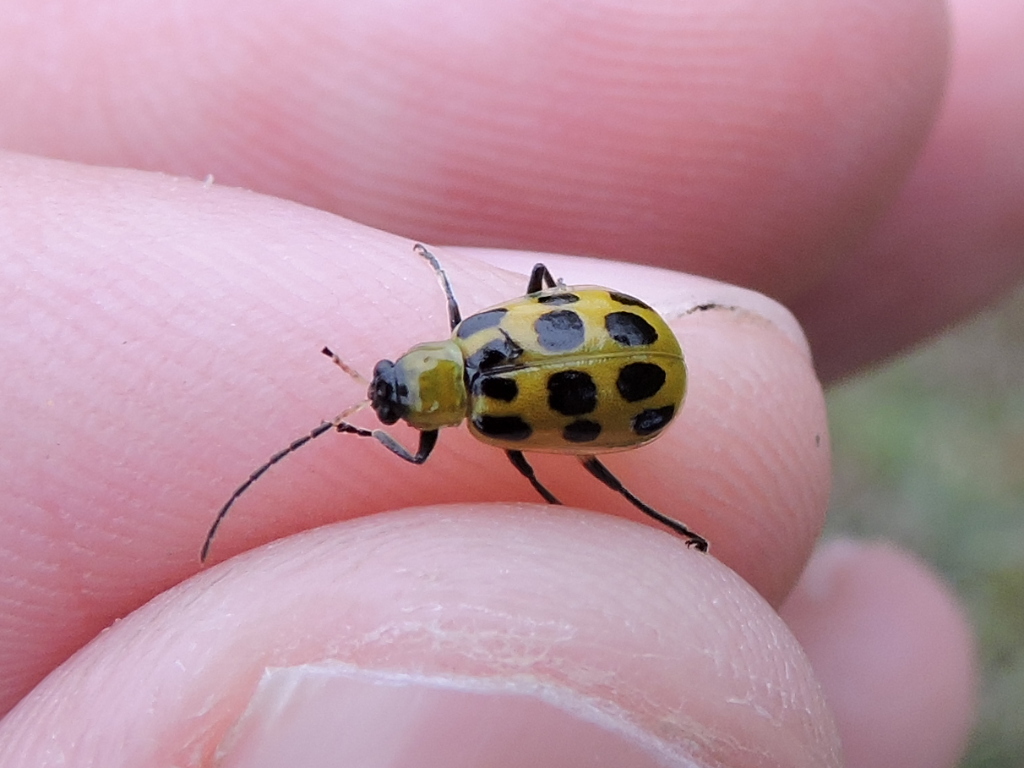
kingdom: Animalia
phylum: Arthropoda
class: Insecta
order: Coleoptera
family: Chrysomelidae
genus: Diabrotica
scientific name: Diabrotica undecimpunctata
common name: Spotted cucumber beetle
